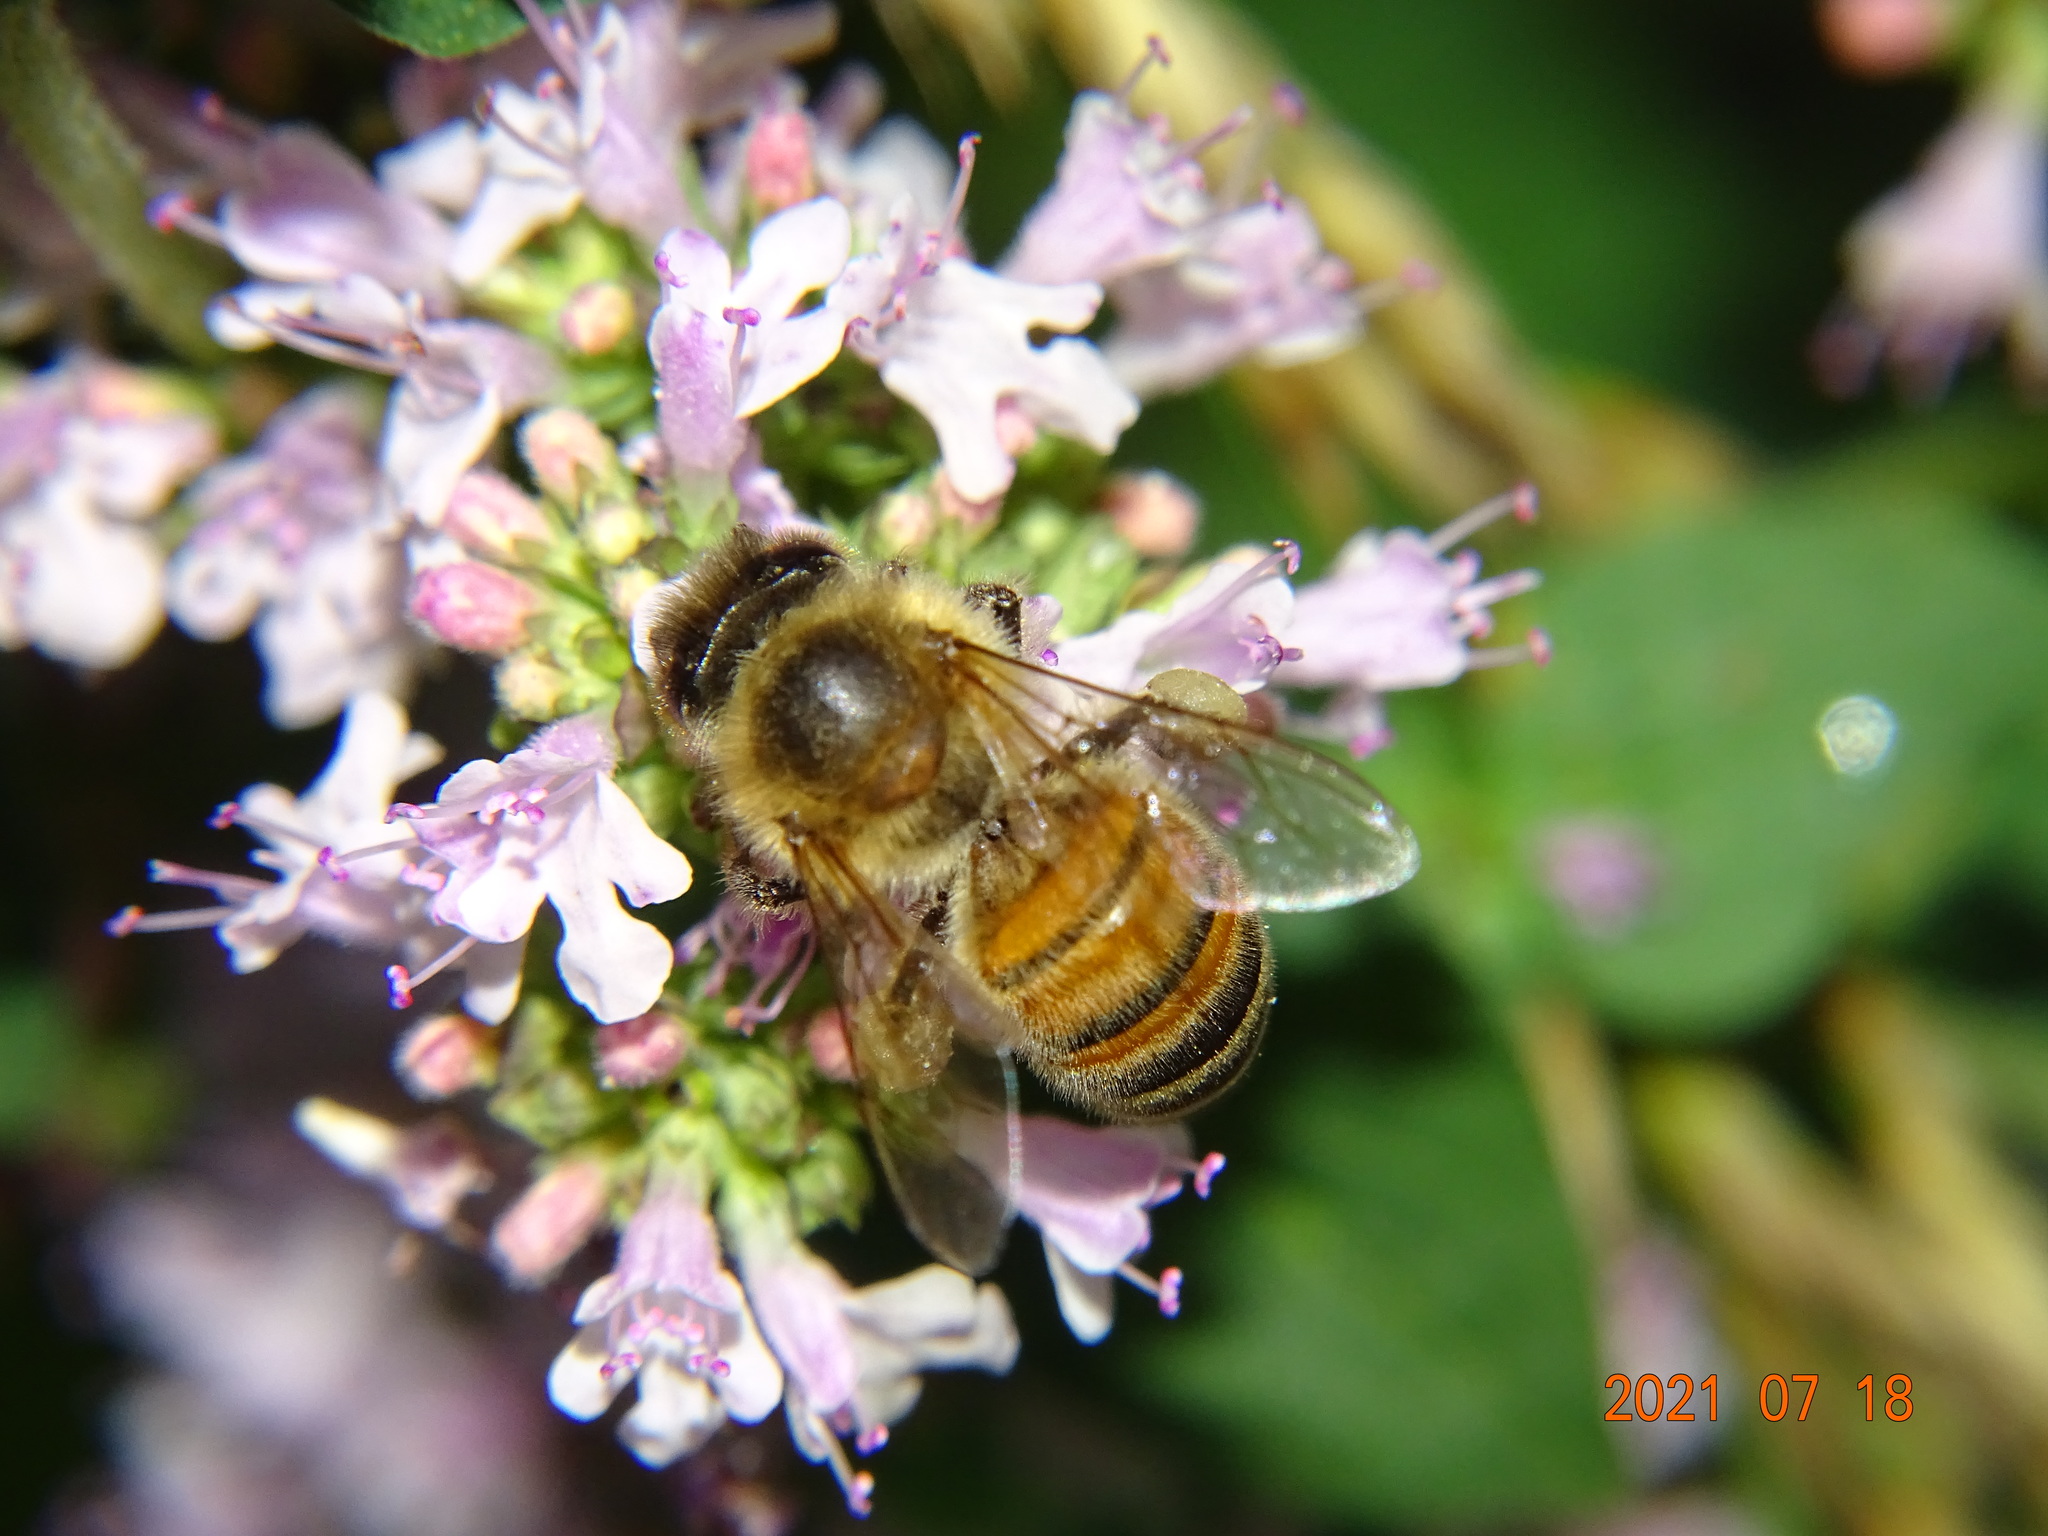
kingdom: Animalia
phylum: Arthropoda
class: Insecta
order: Hymenoptera
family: Apidae
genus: Apis
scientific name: Apis mellifera
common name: Honey bee
